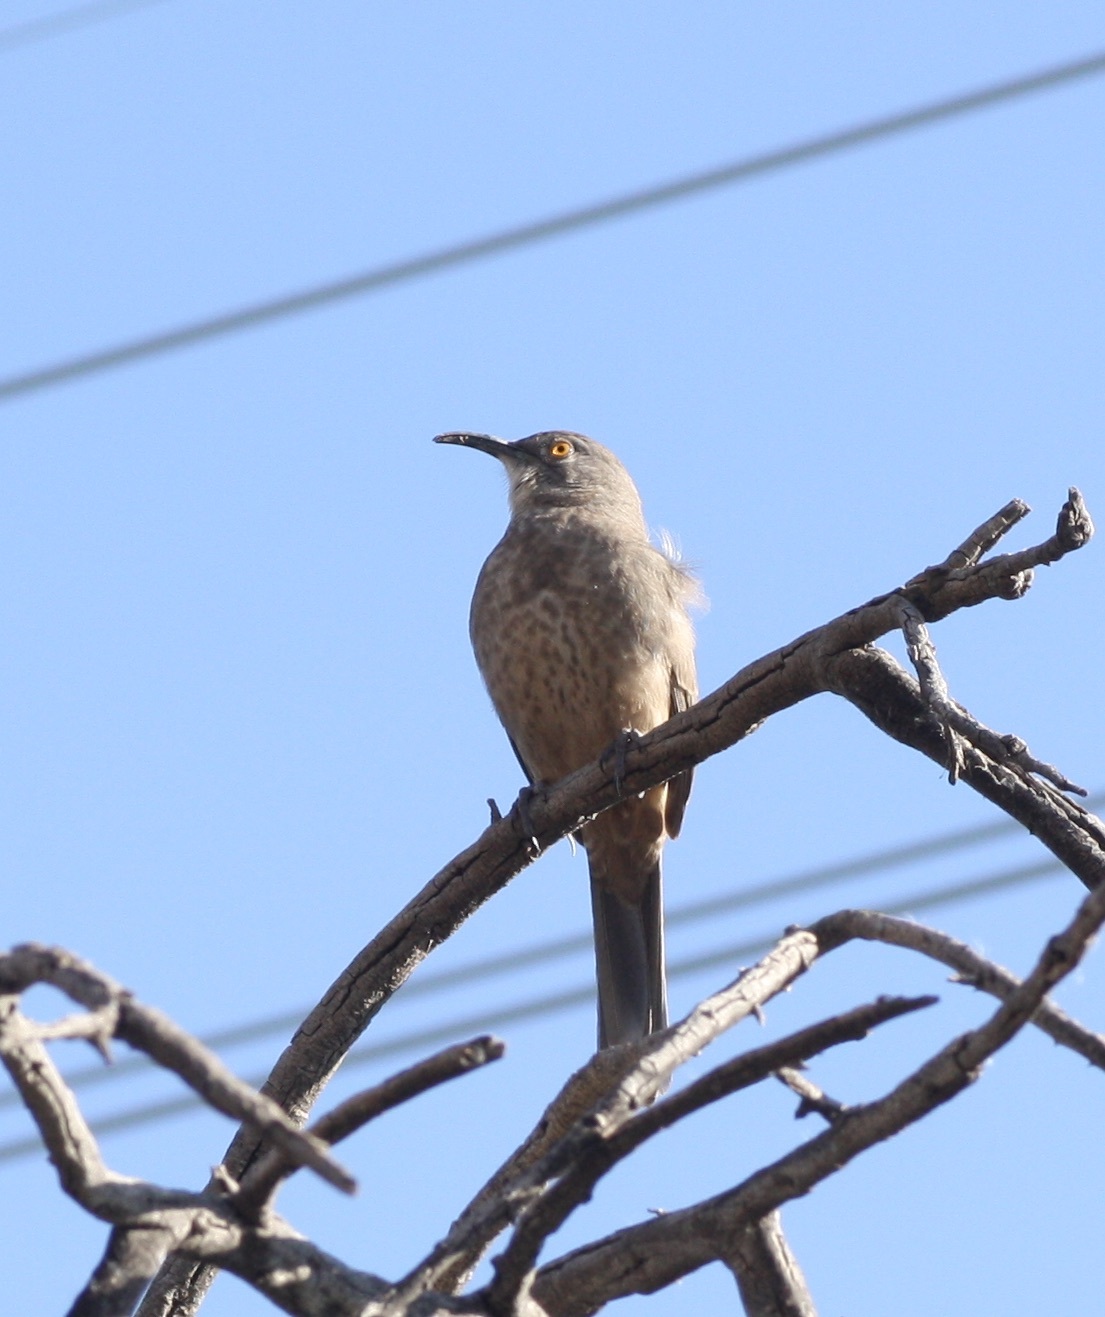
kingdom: Animalia
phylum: Chordata
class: Aves
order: Passeriformes
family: Mimidae
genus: Toxostoma
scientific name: Toxostoma curvirostre
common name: Curve-billed thrasher
